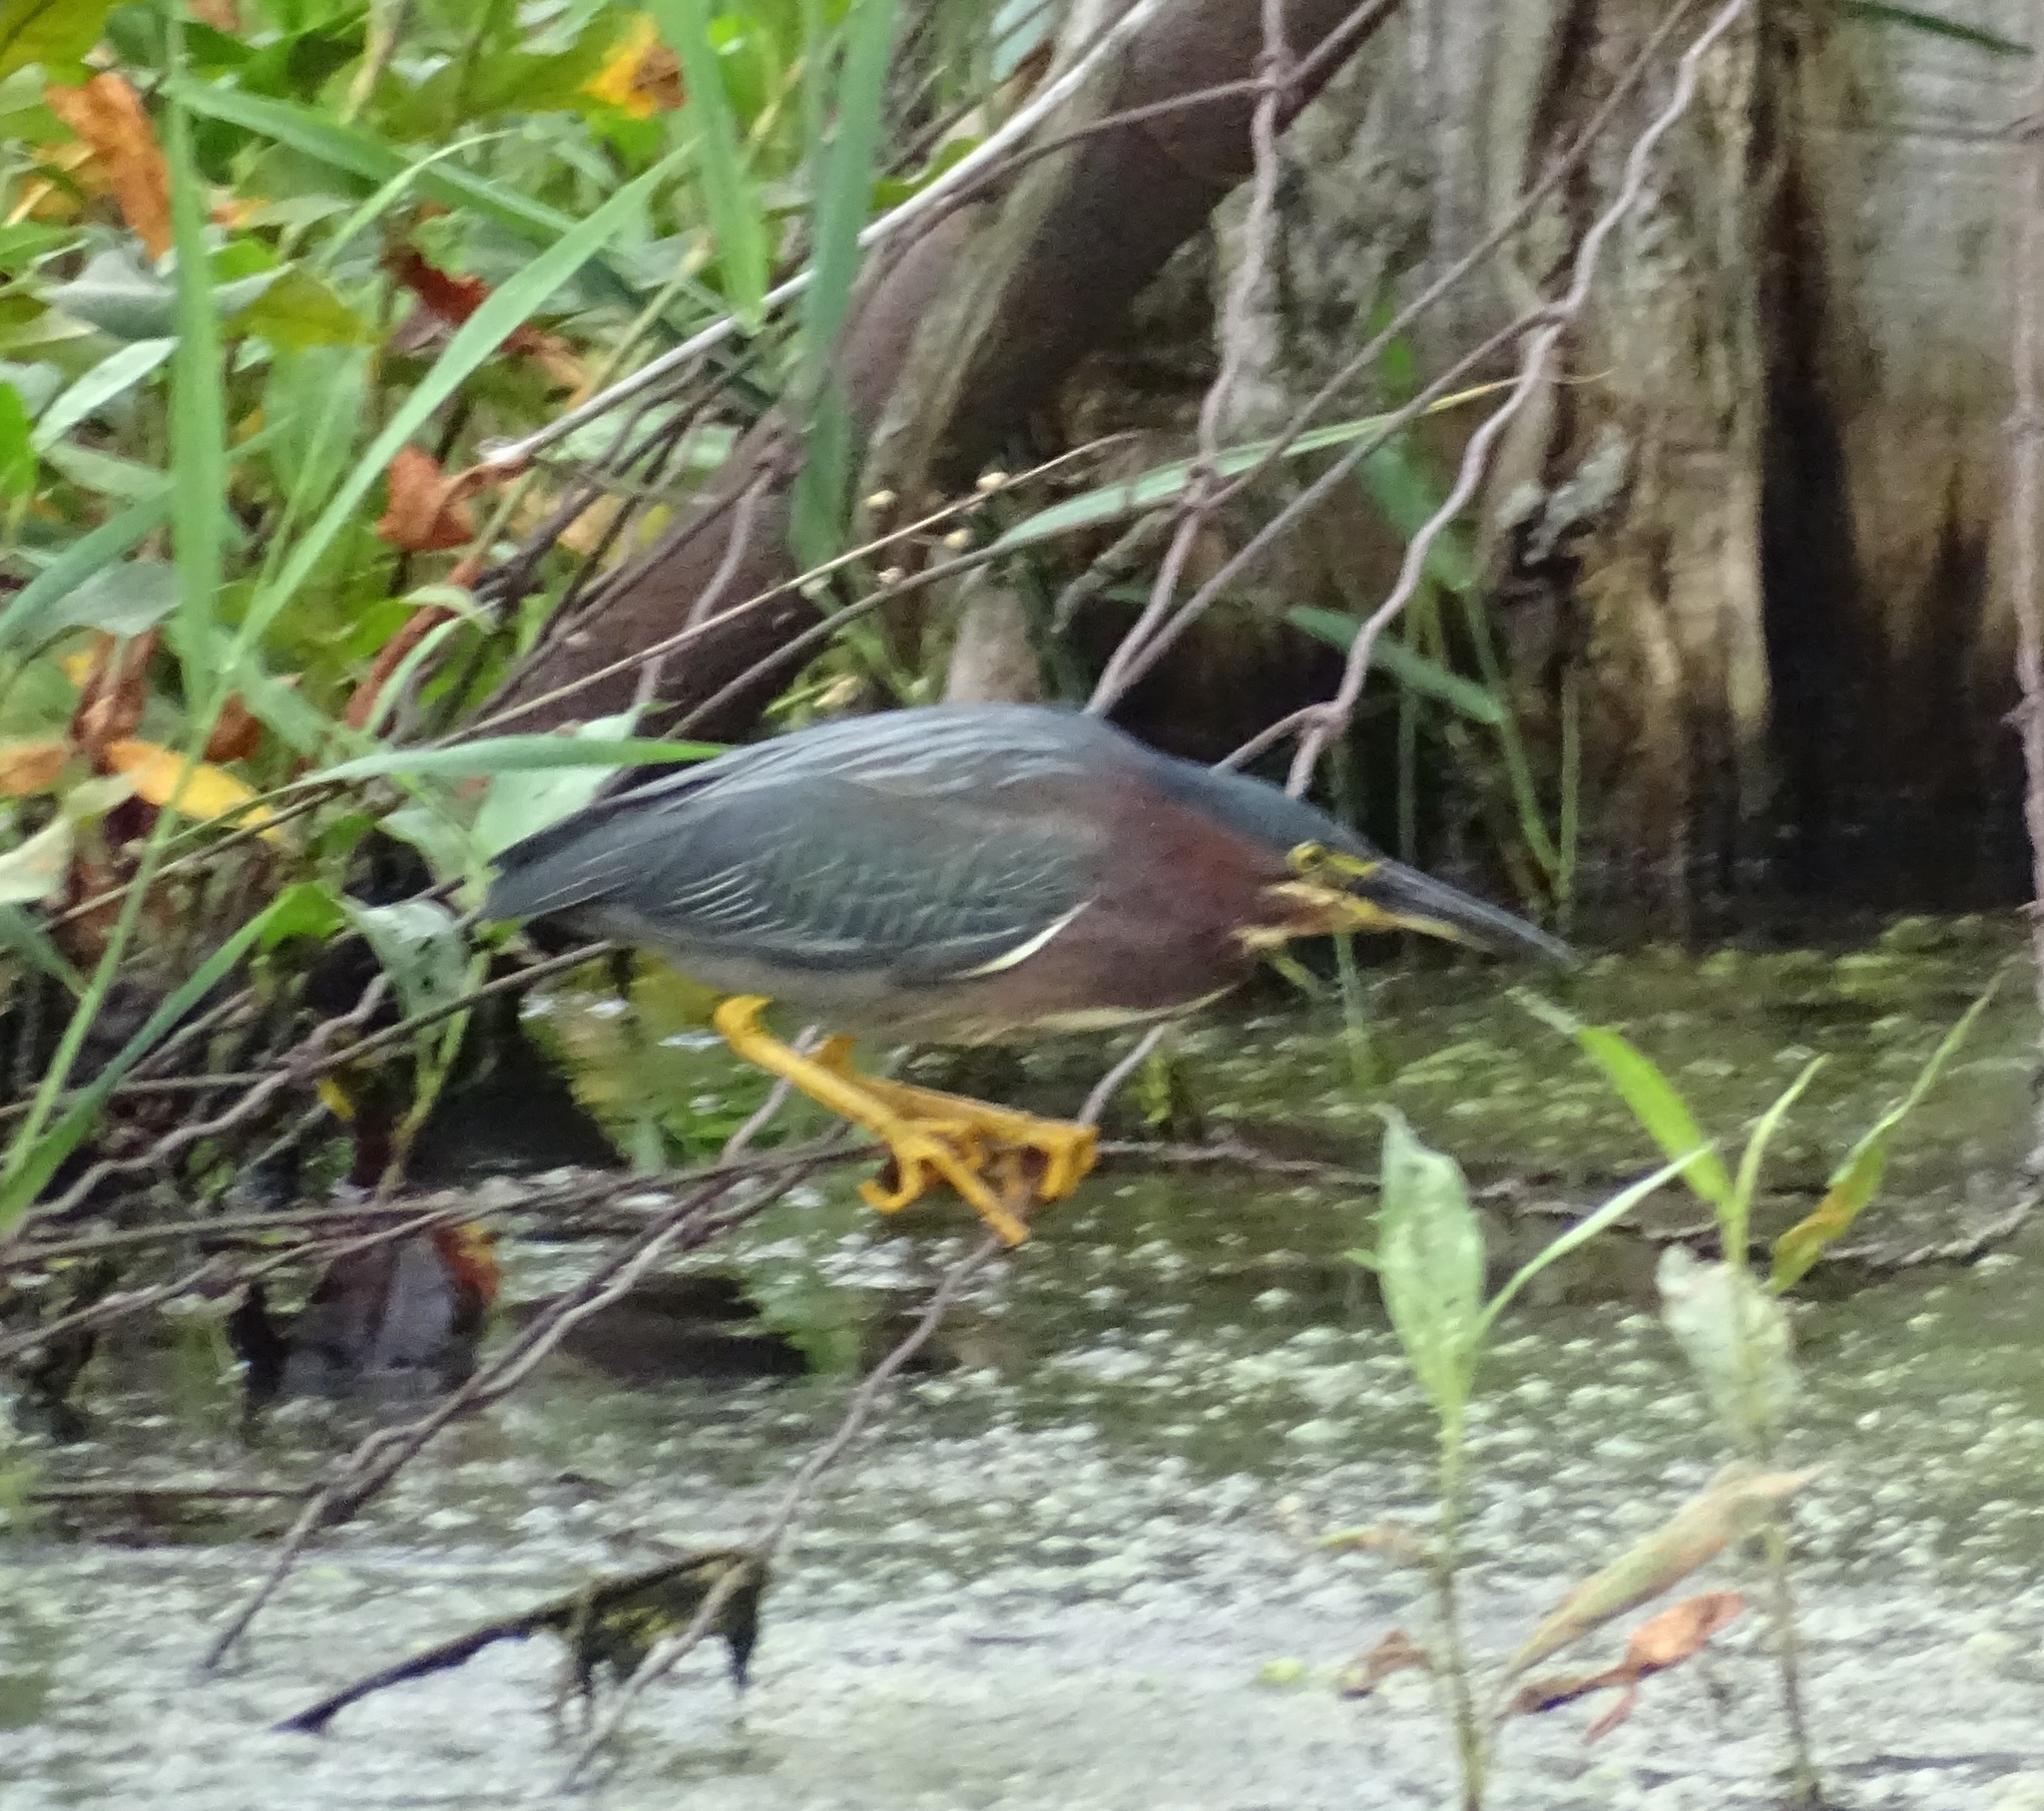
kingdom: Animalia
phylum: Chordata
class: Aves
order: Pelecaniformes
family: Ardeidae
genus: Butorides
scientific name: Butorides virescens
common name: Green heron
